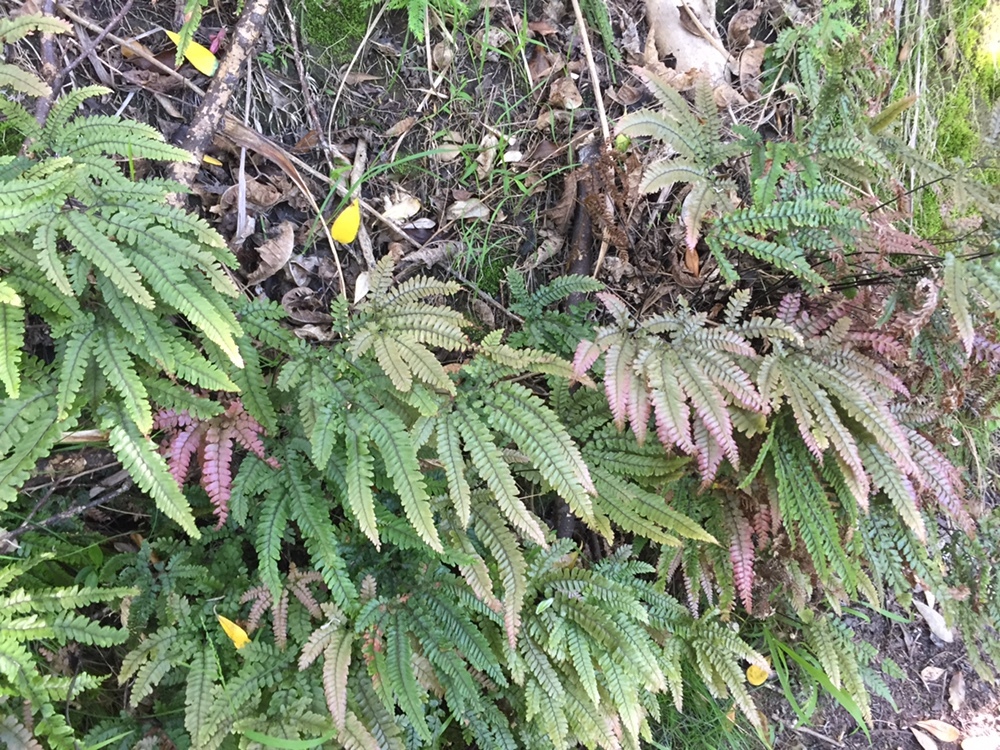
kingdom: Plantae
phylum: Tracheophyta
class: Polypodiopsida
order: Polypodiales
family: Pteridaceae
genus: Adiantum
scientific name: Adiantum hispidulum
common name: Rough maidenhair
